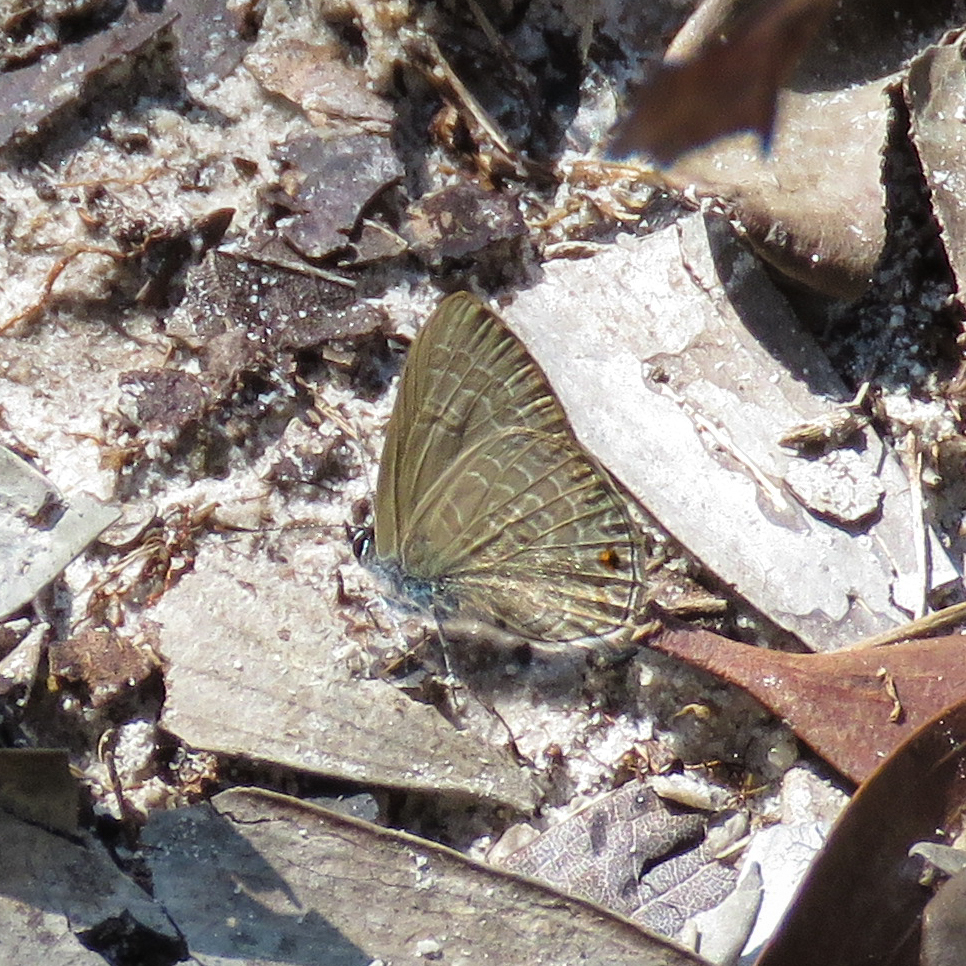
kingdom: Animalia
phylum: Arthropoda
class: Insecta
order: Lepidoptera
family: Lycaenidae
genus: Anthene
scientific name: Anthene emolus
